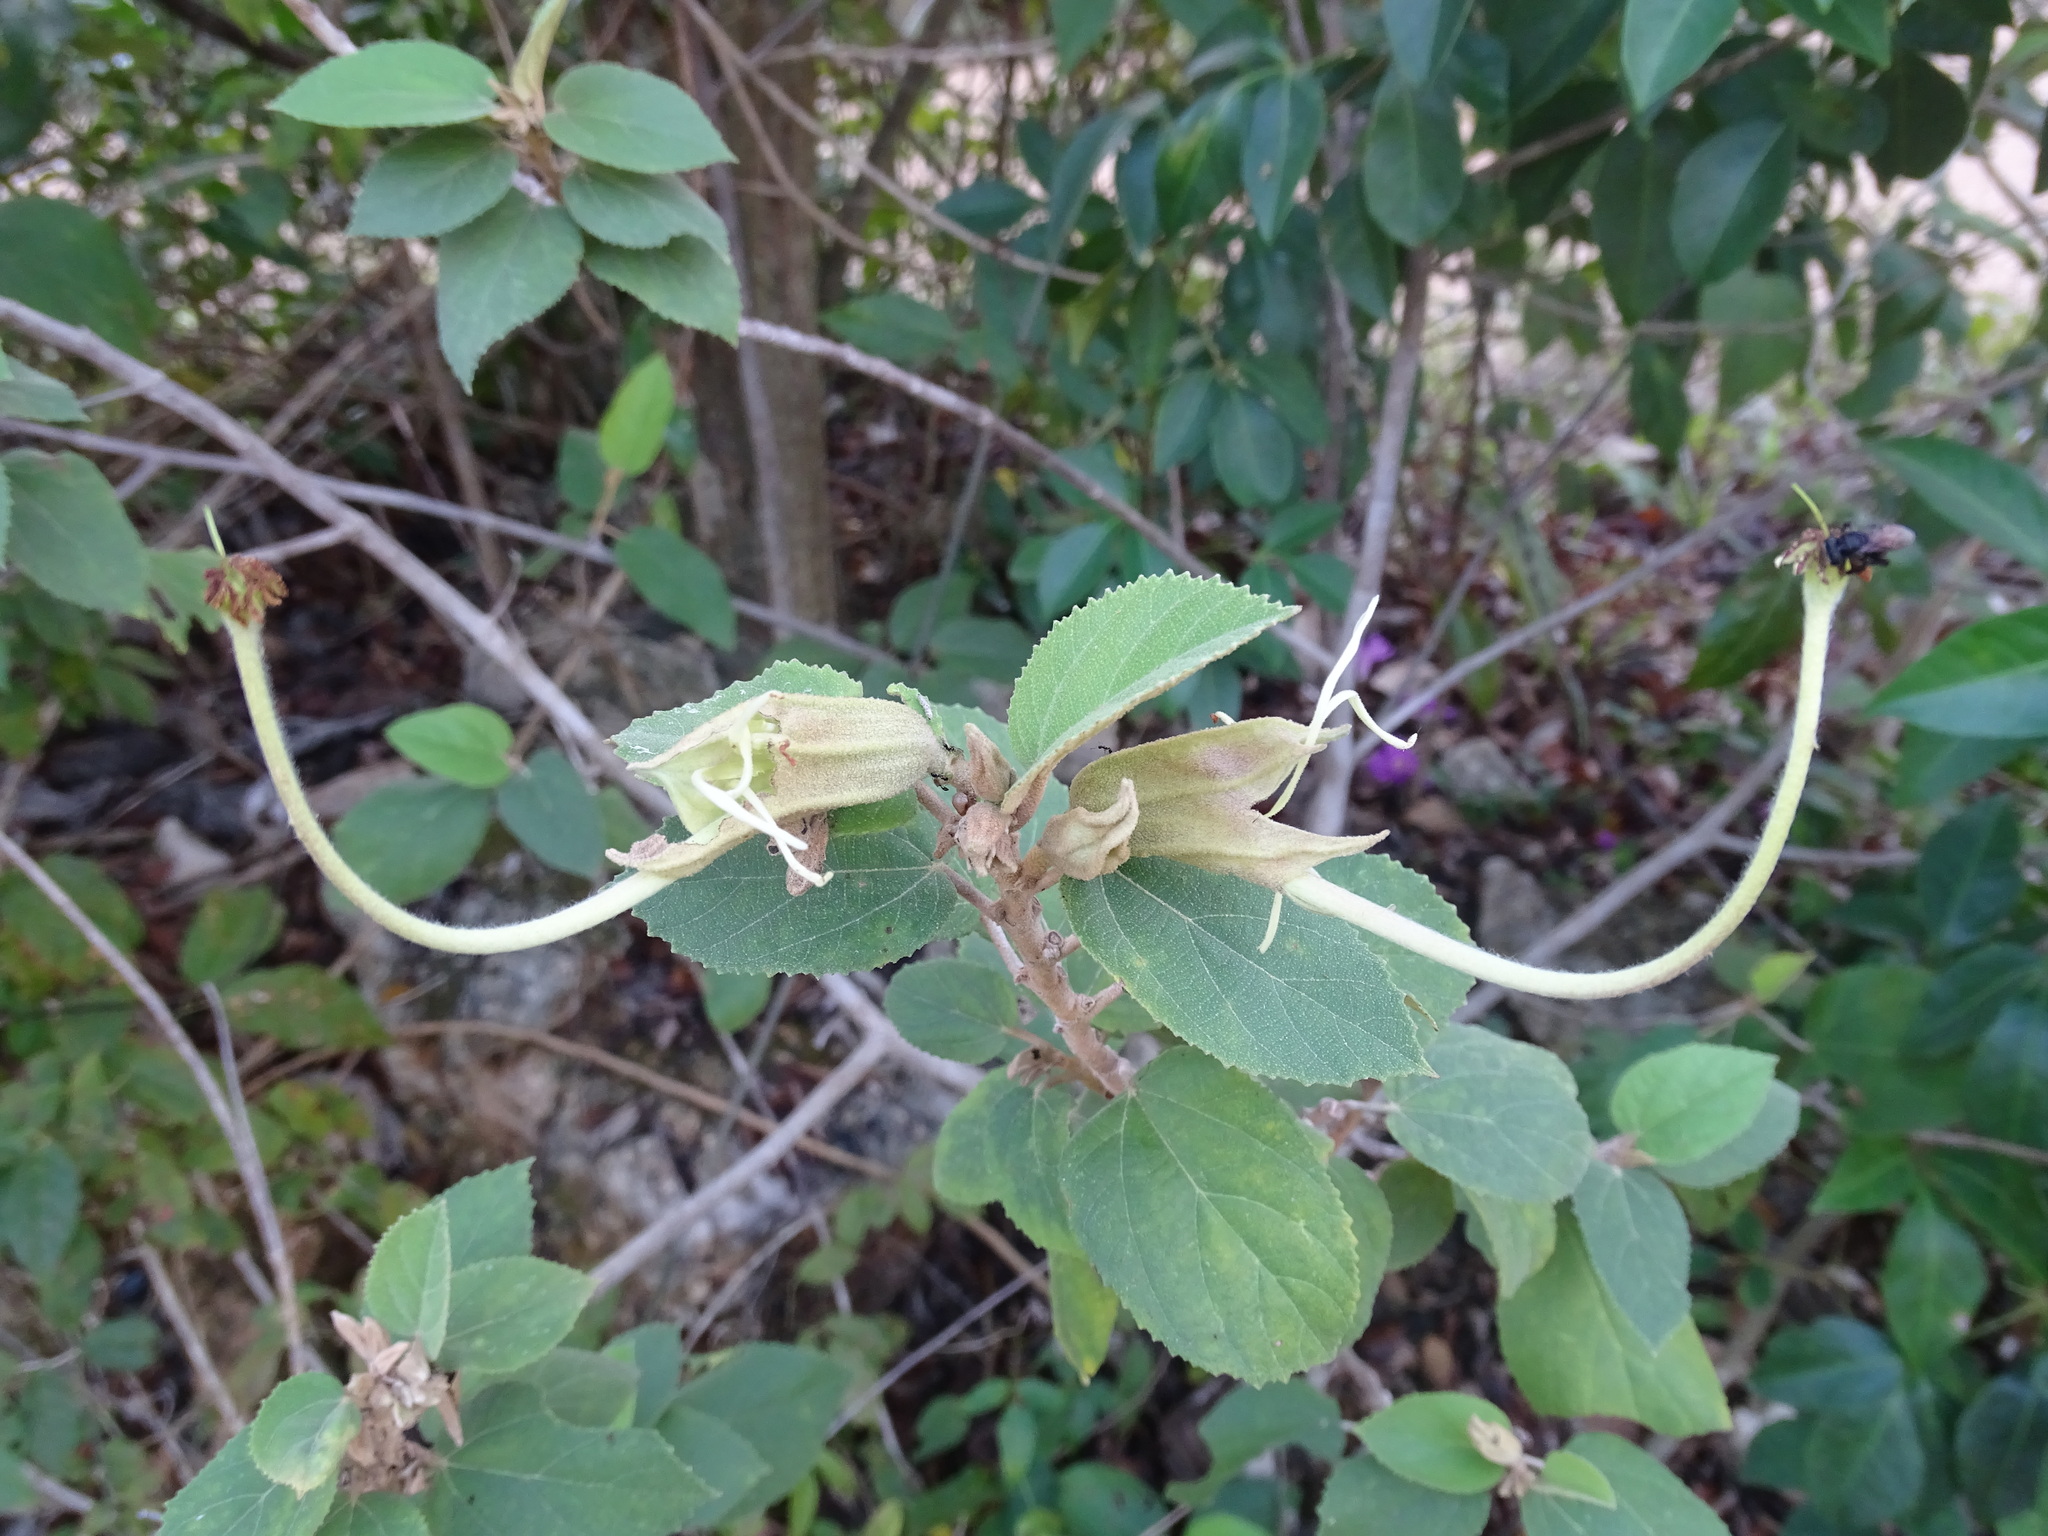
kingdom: Plantae
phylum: Tracheophyta
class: Magnoliopsida
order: Malvales
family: Malvaceae
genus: Helicteres
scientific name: Helicteres baruensis
